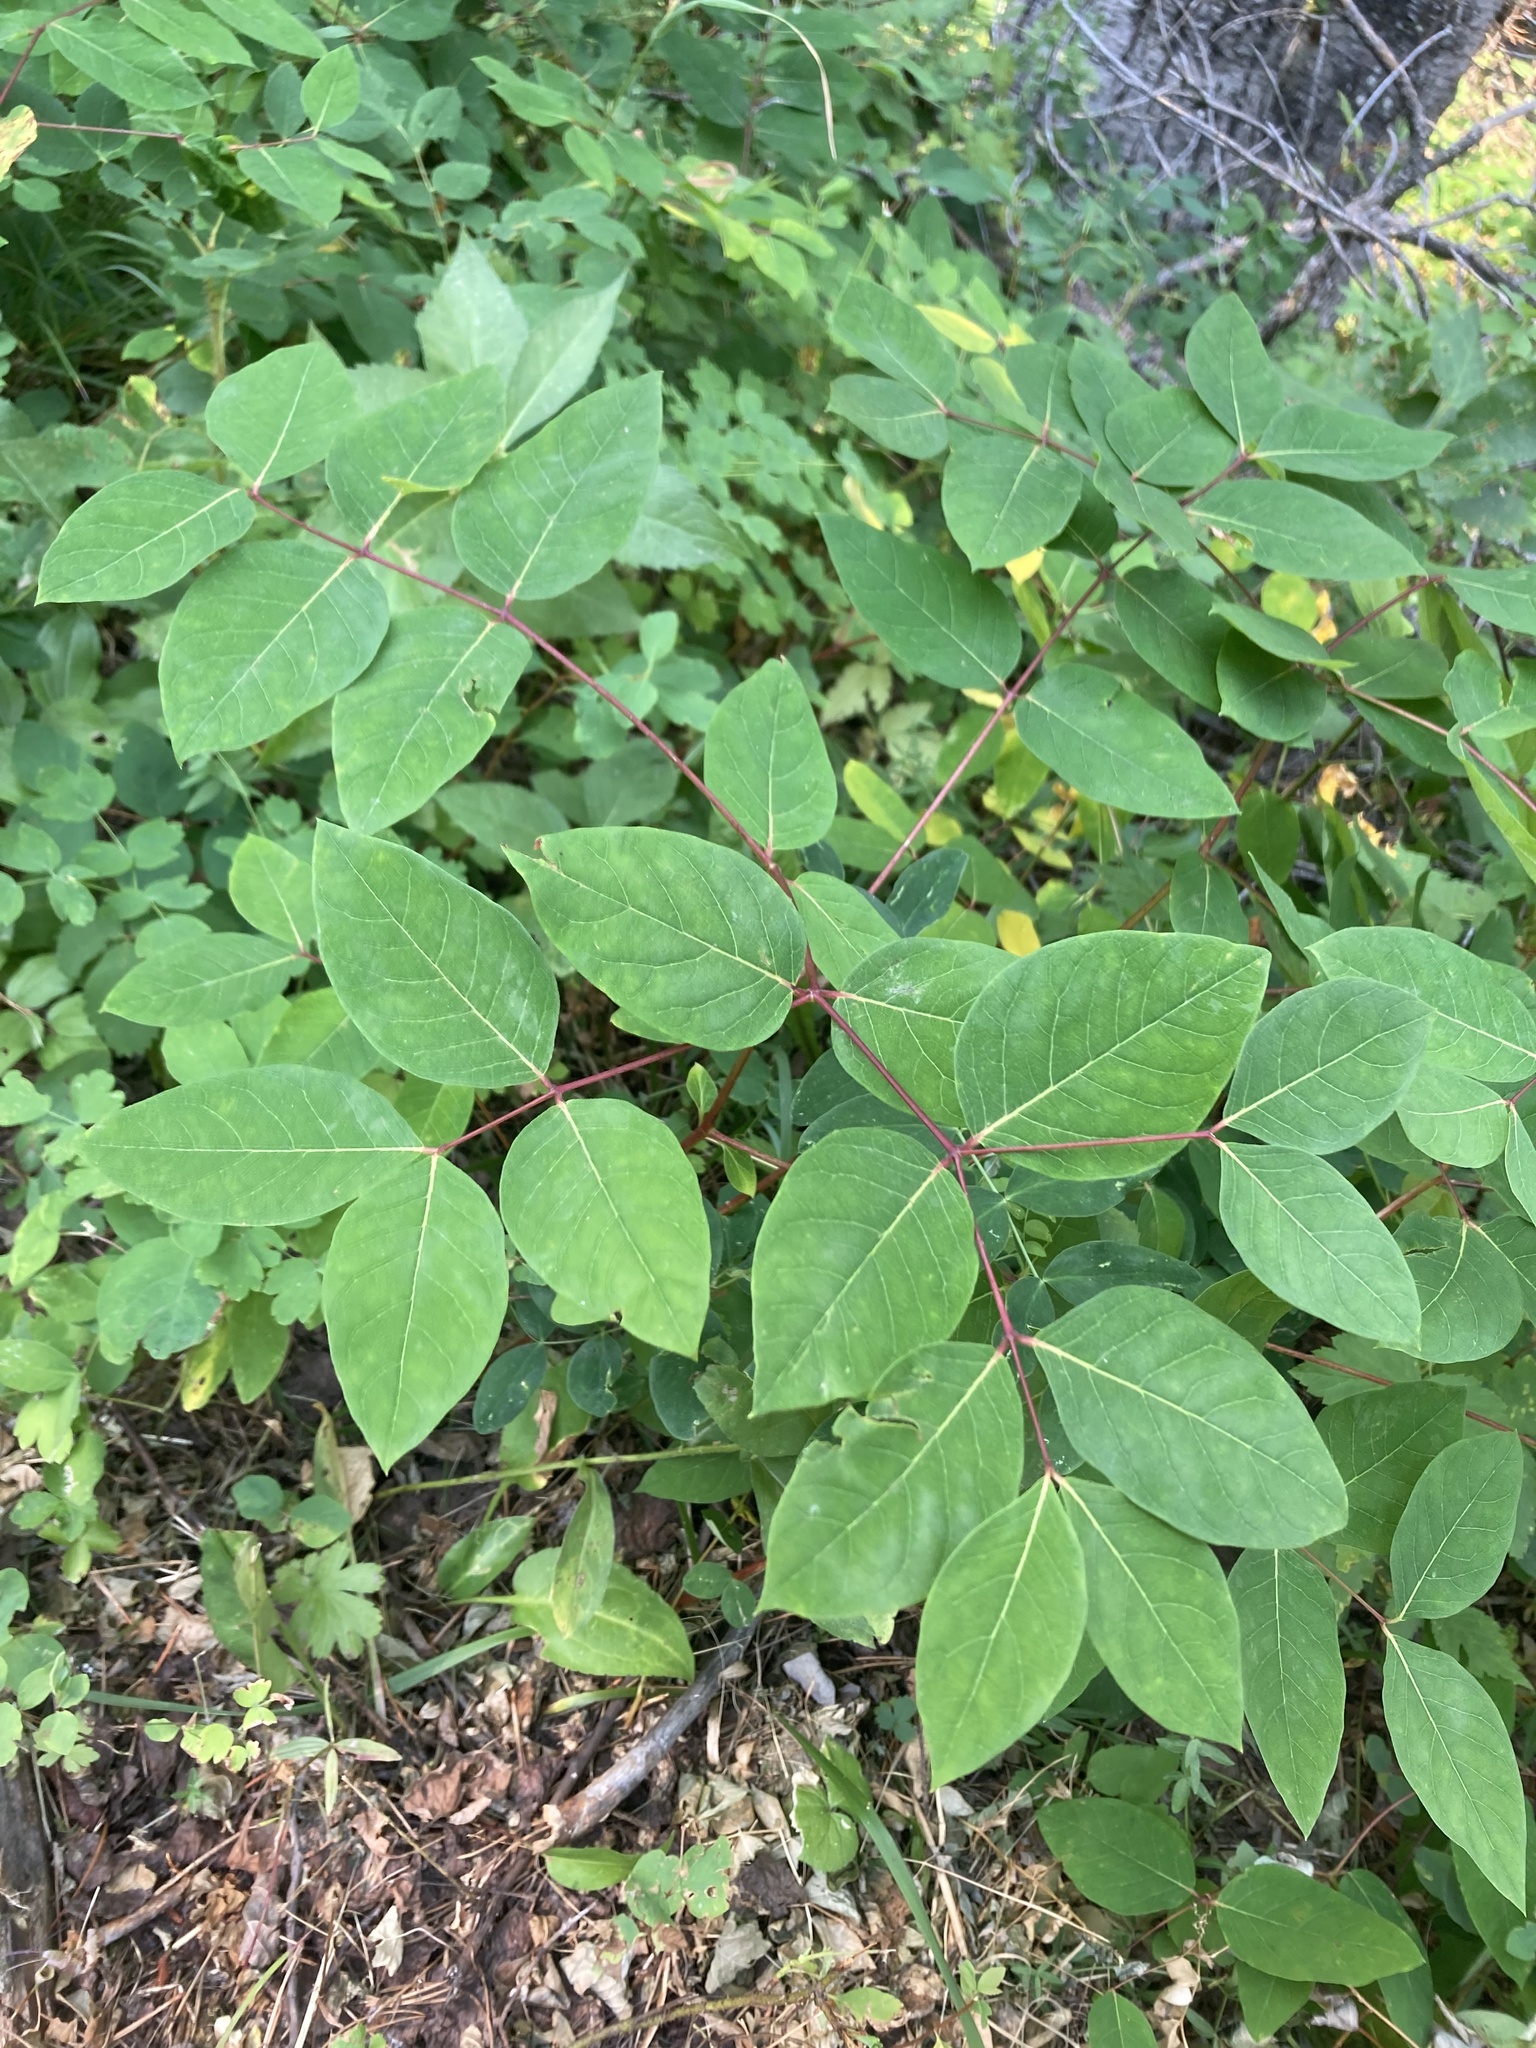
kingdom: Plantae
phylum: Tracheophyta
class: Magnoliopsida
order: Gentianales
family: Apocynaceae
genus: Apocynum
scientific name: Apocynum cannabinum
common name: Hemp dogbane
